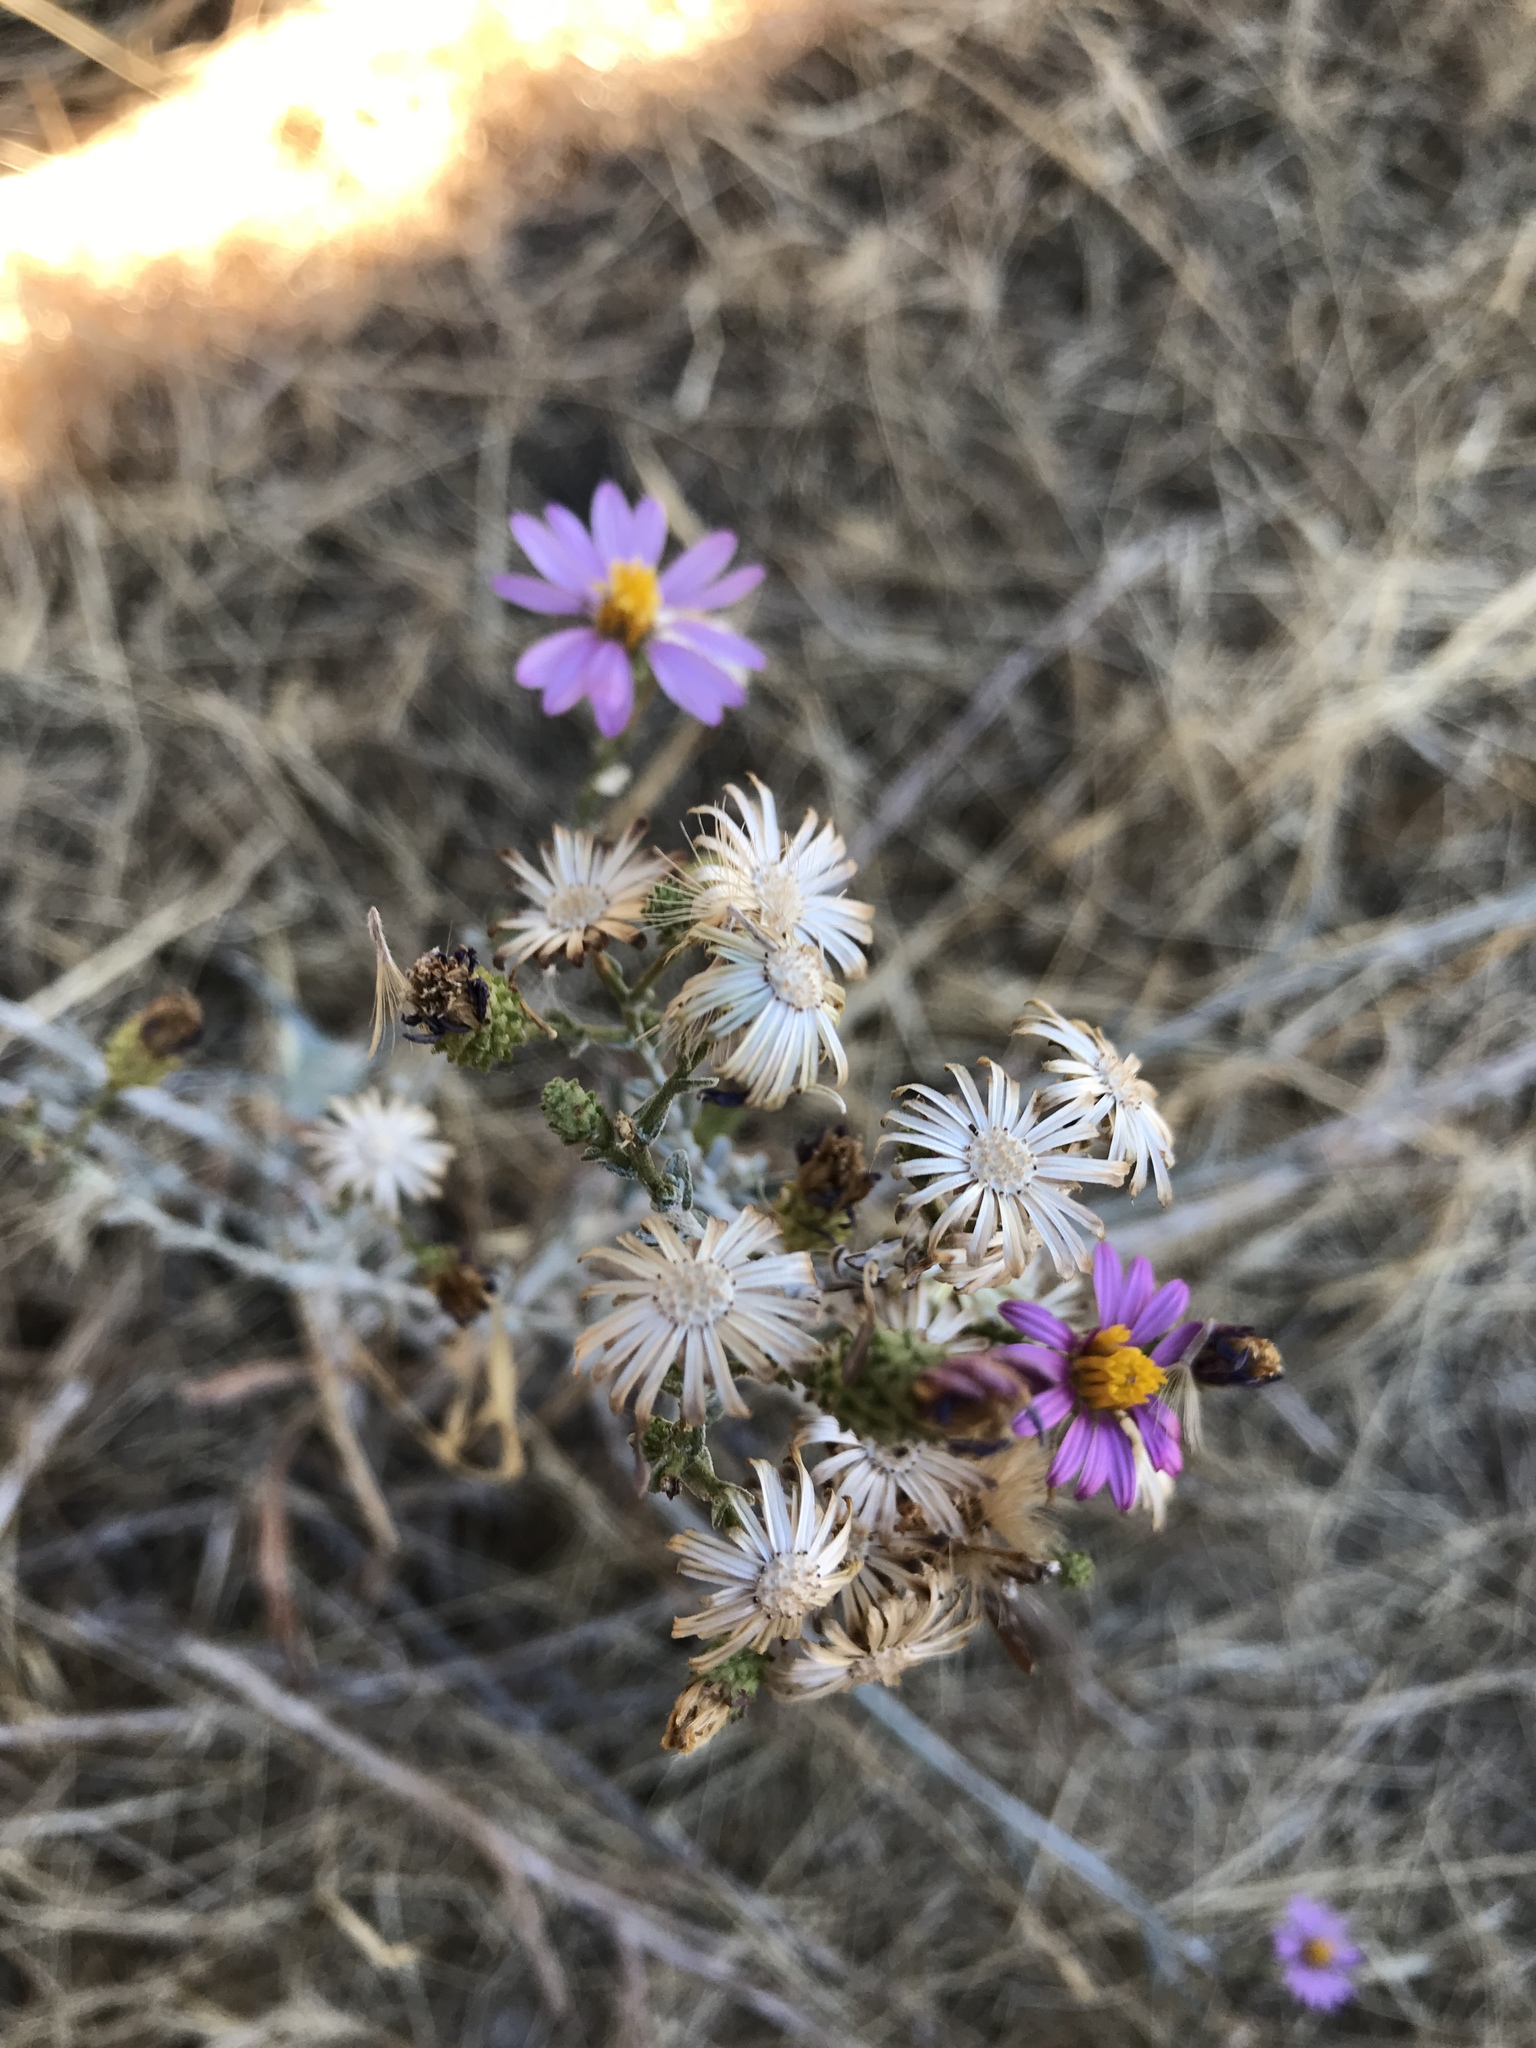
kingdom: Plantae
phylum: Tracheophyta
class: Magnoliopsida
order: Asterales
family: Asteraceae
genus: Corethrogyne
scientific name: Corethrogyne filaginifolia
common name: Sand-aster
